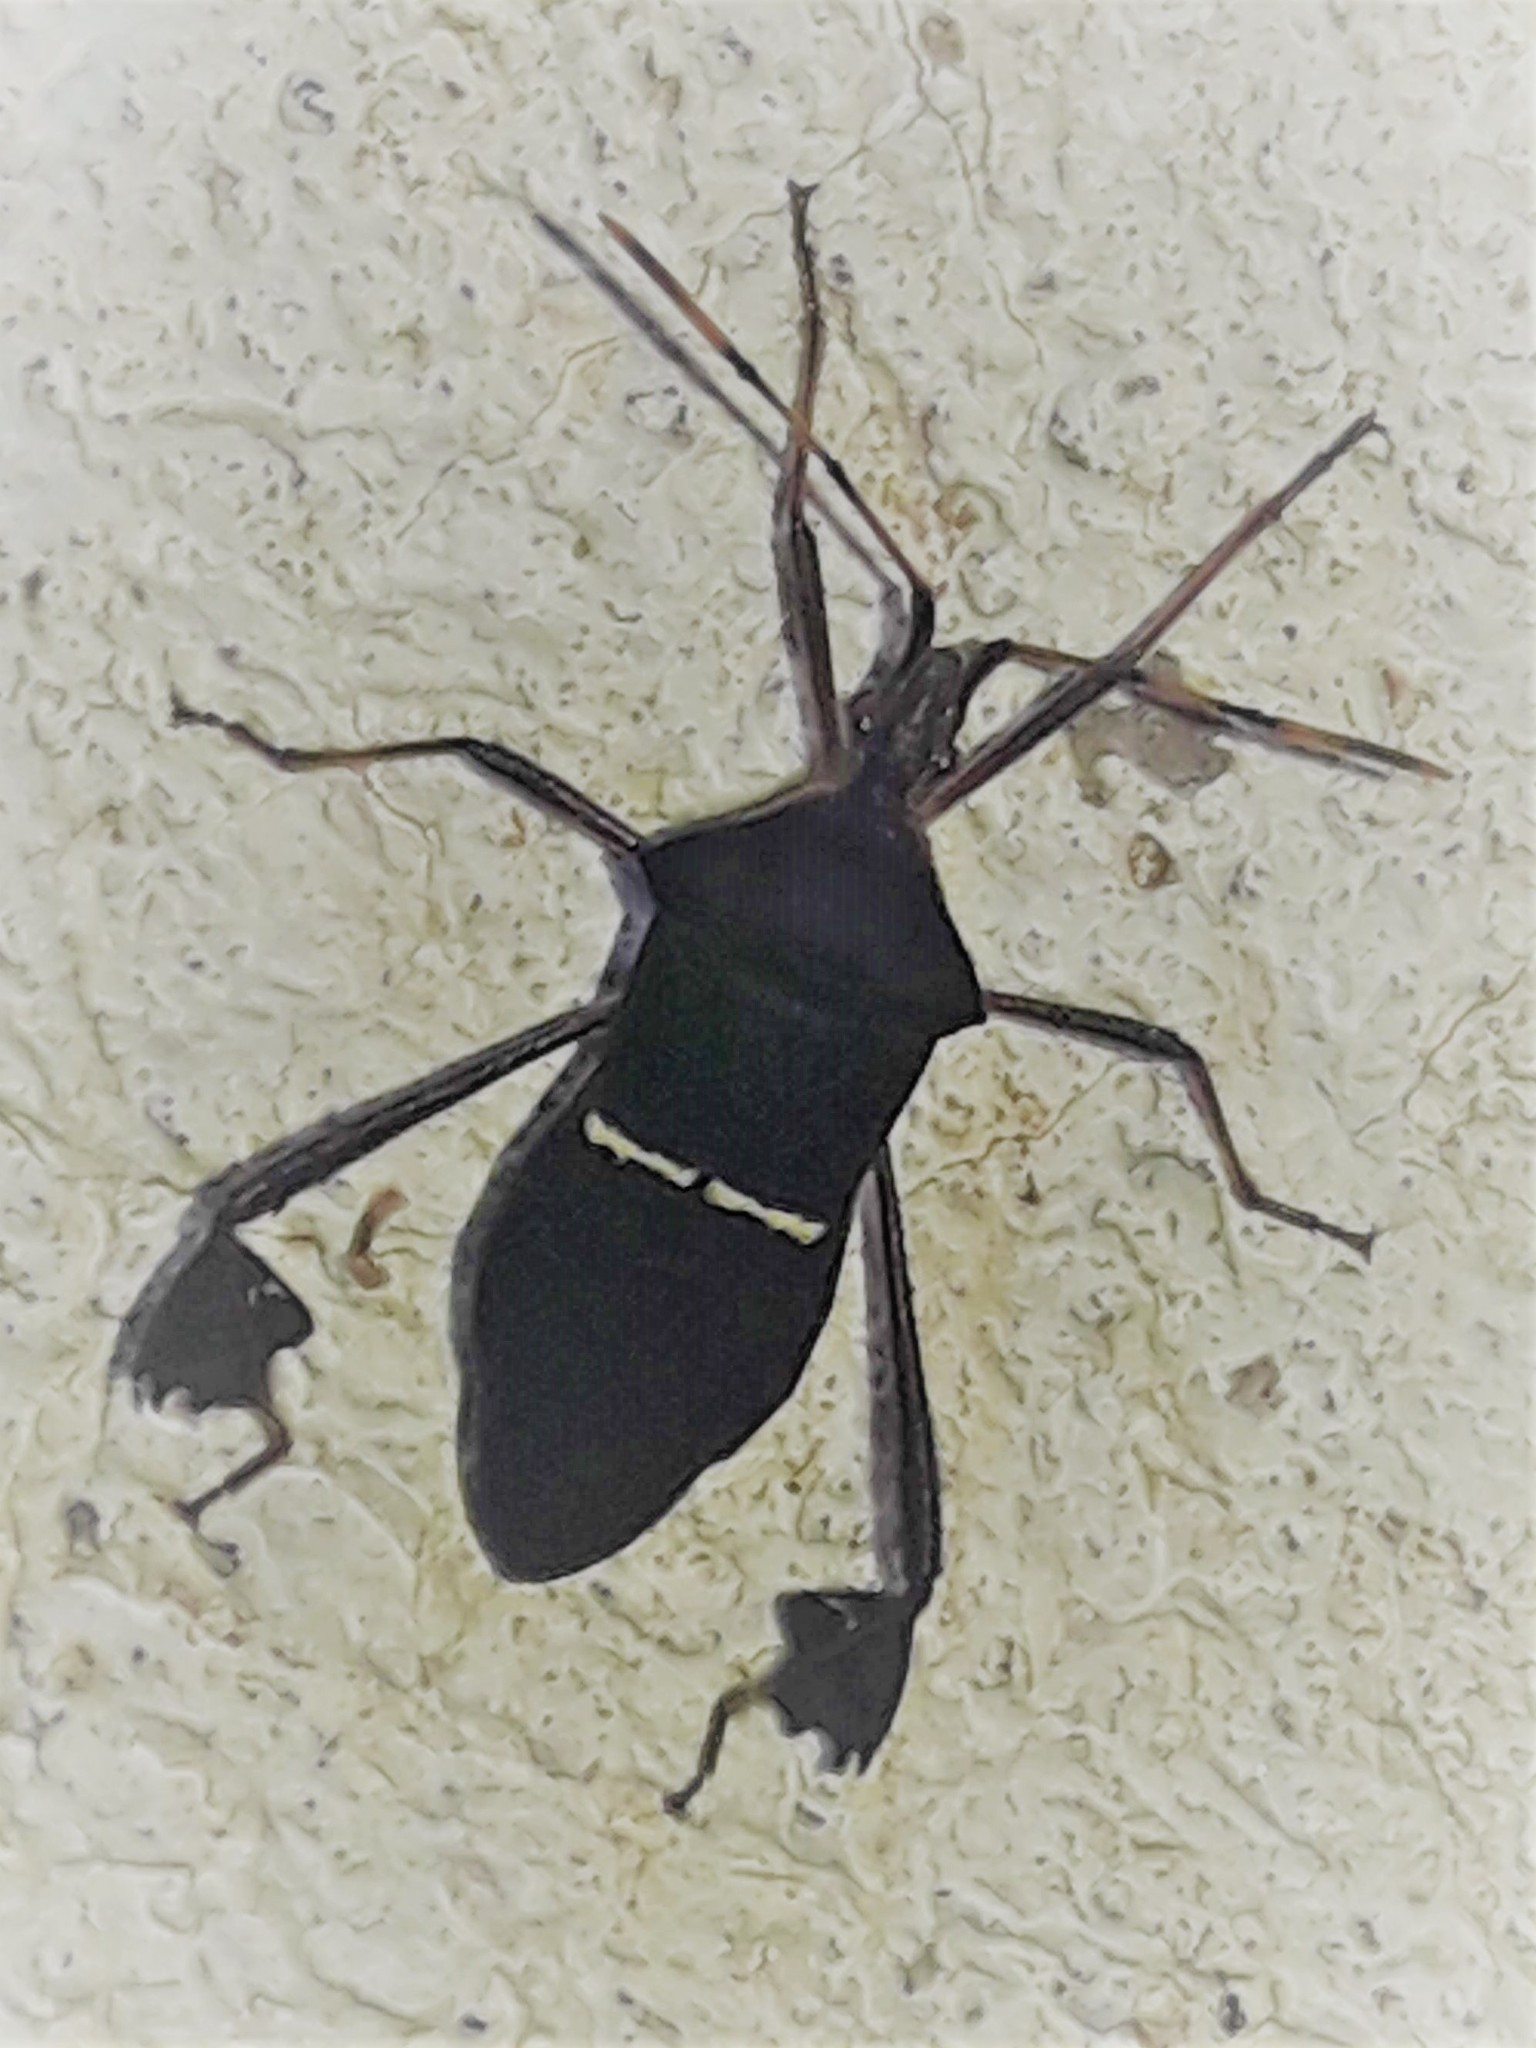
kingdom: Animalia
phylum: Arthropoda
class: Insecta
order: Hemiptera
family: Coreidae
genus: Leptoglossus
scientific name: Leptoglossus cartagoensis
